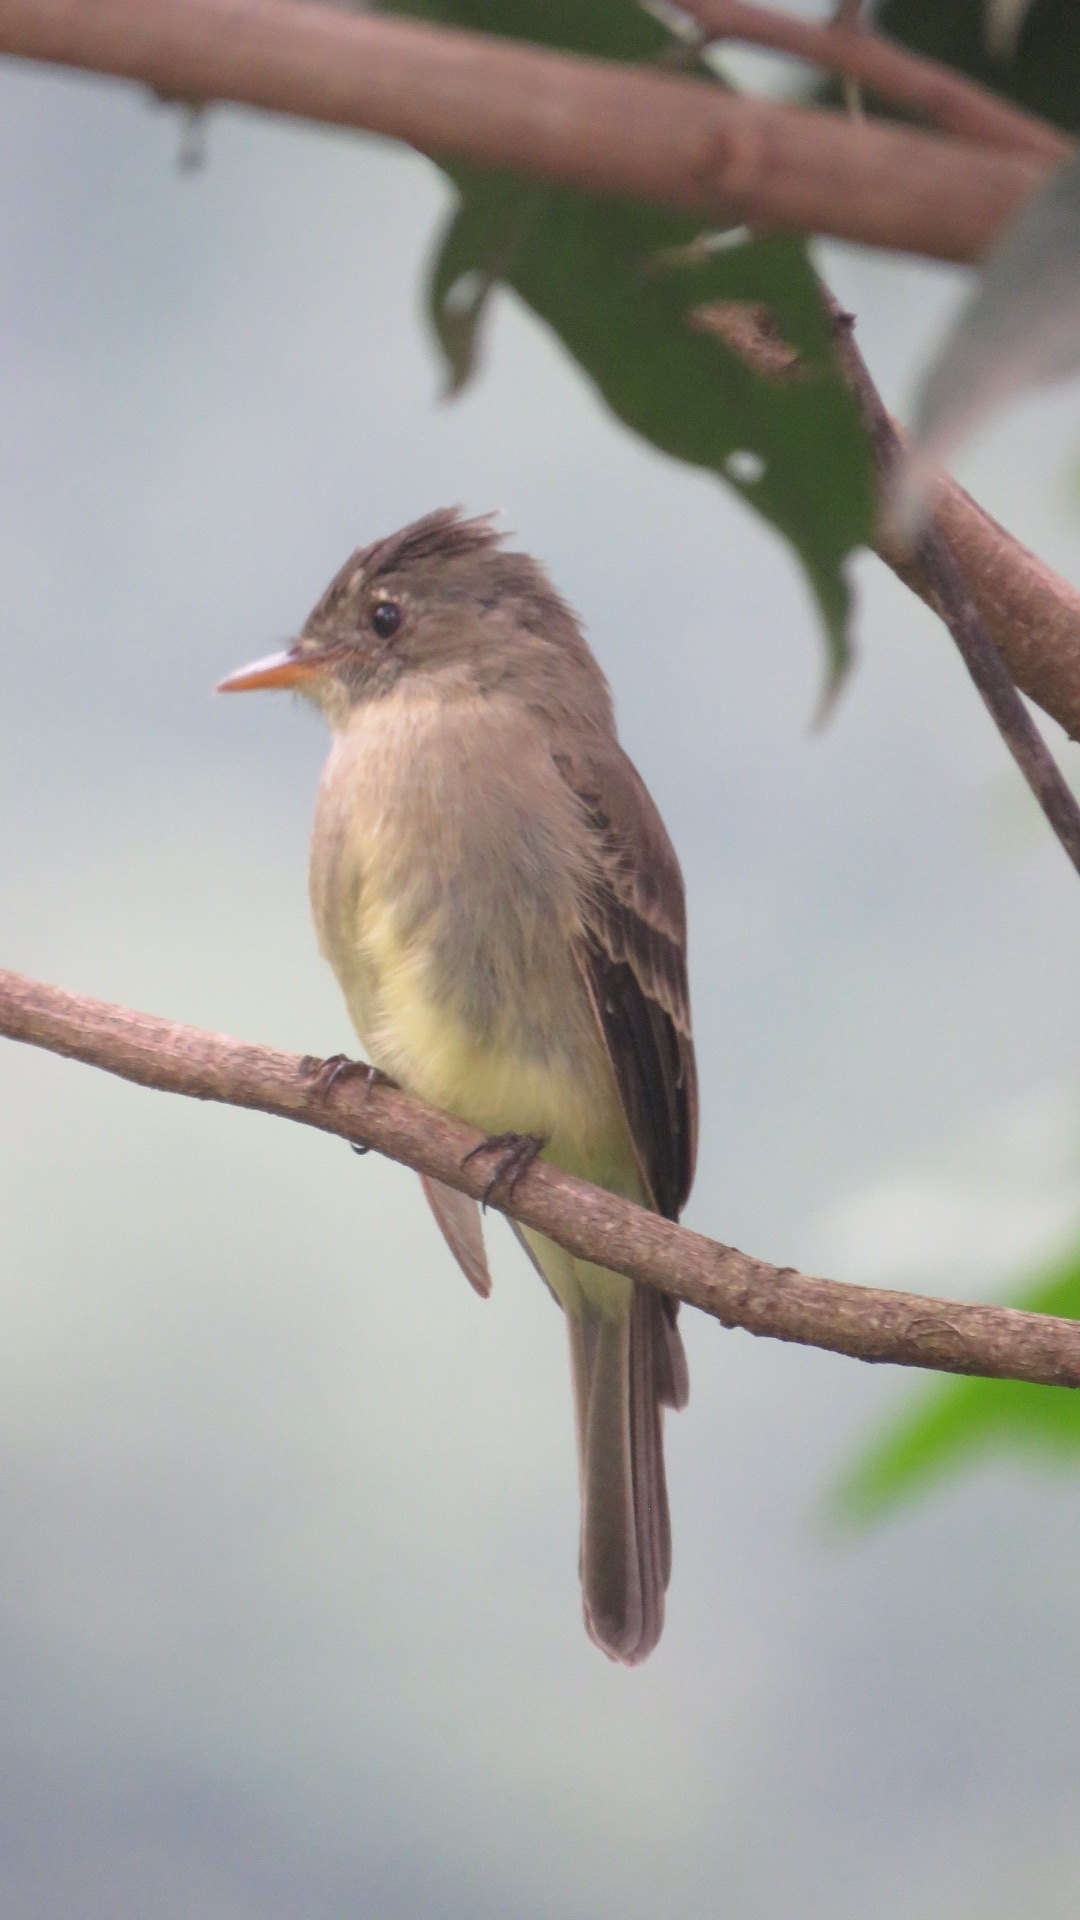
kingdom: Animalia
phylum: Chordata
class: Aves
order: Passeriformes
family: Tyrannidae
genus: Contopus
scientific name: Contopus cinereus
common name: Tropical pewee
